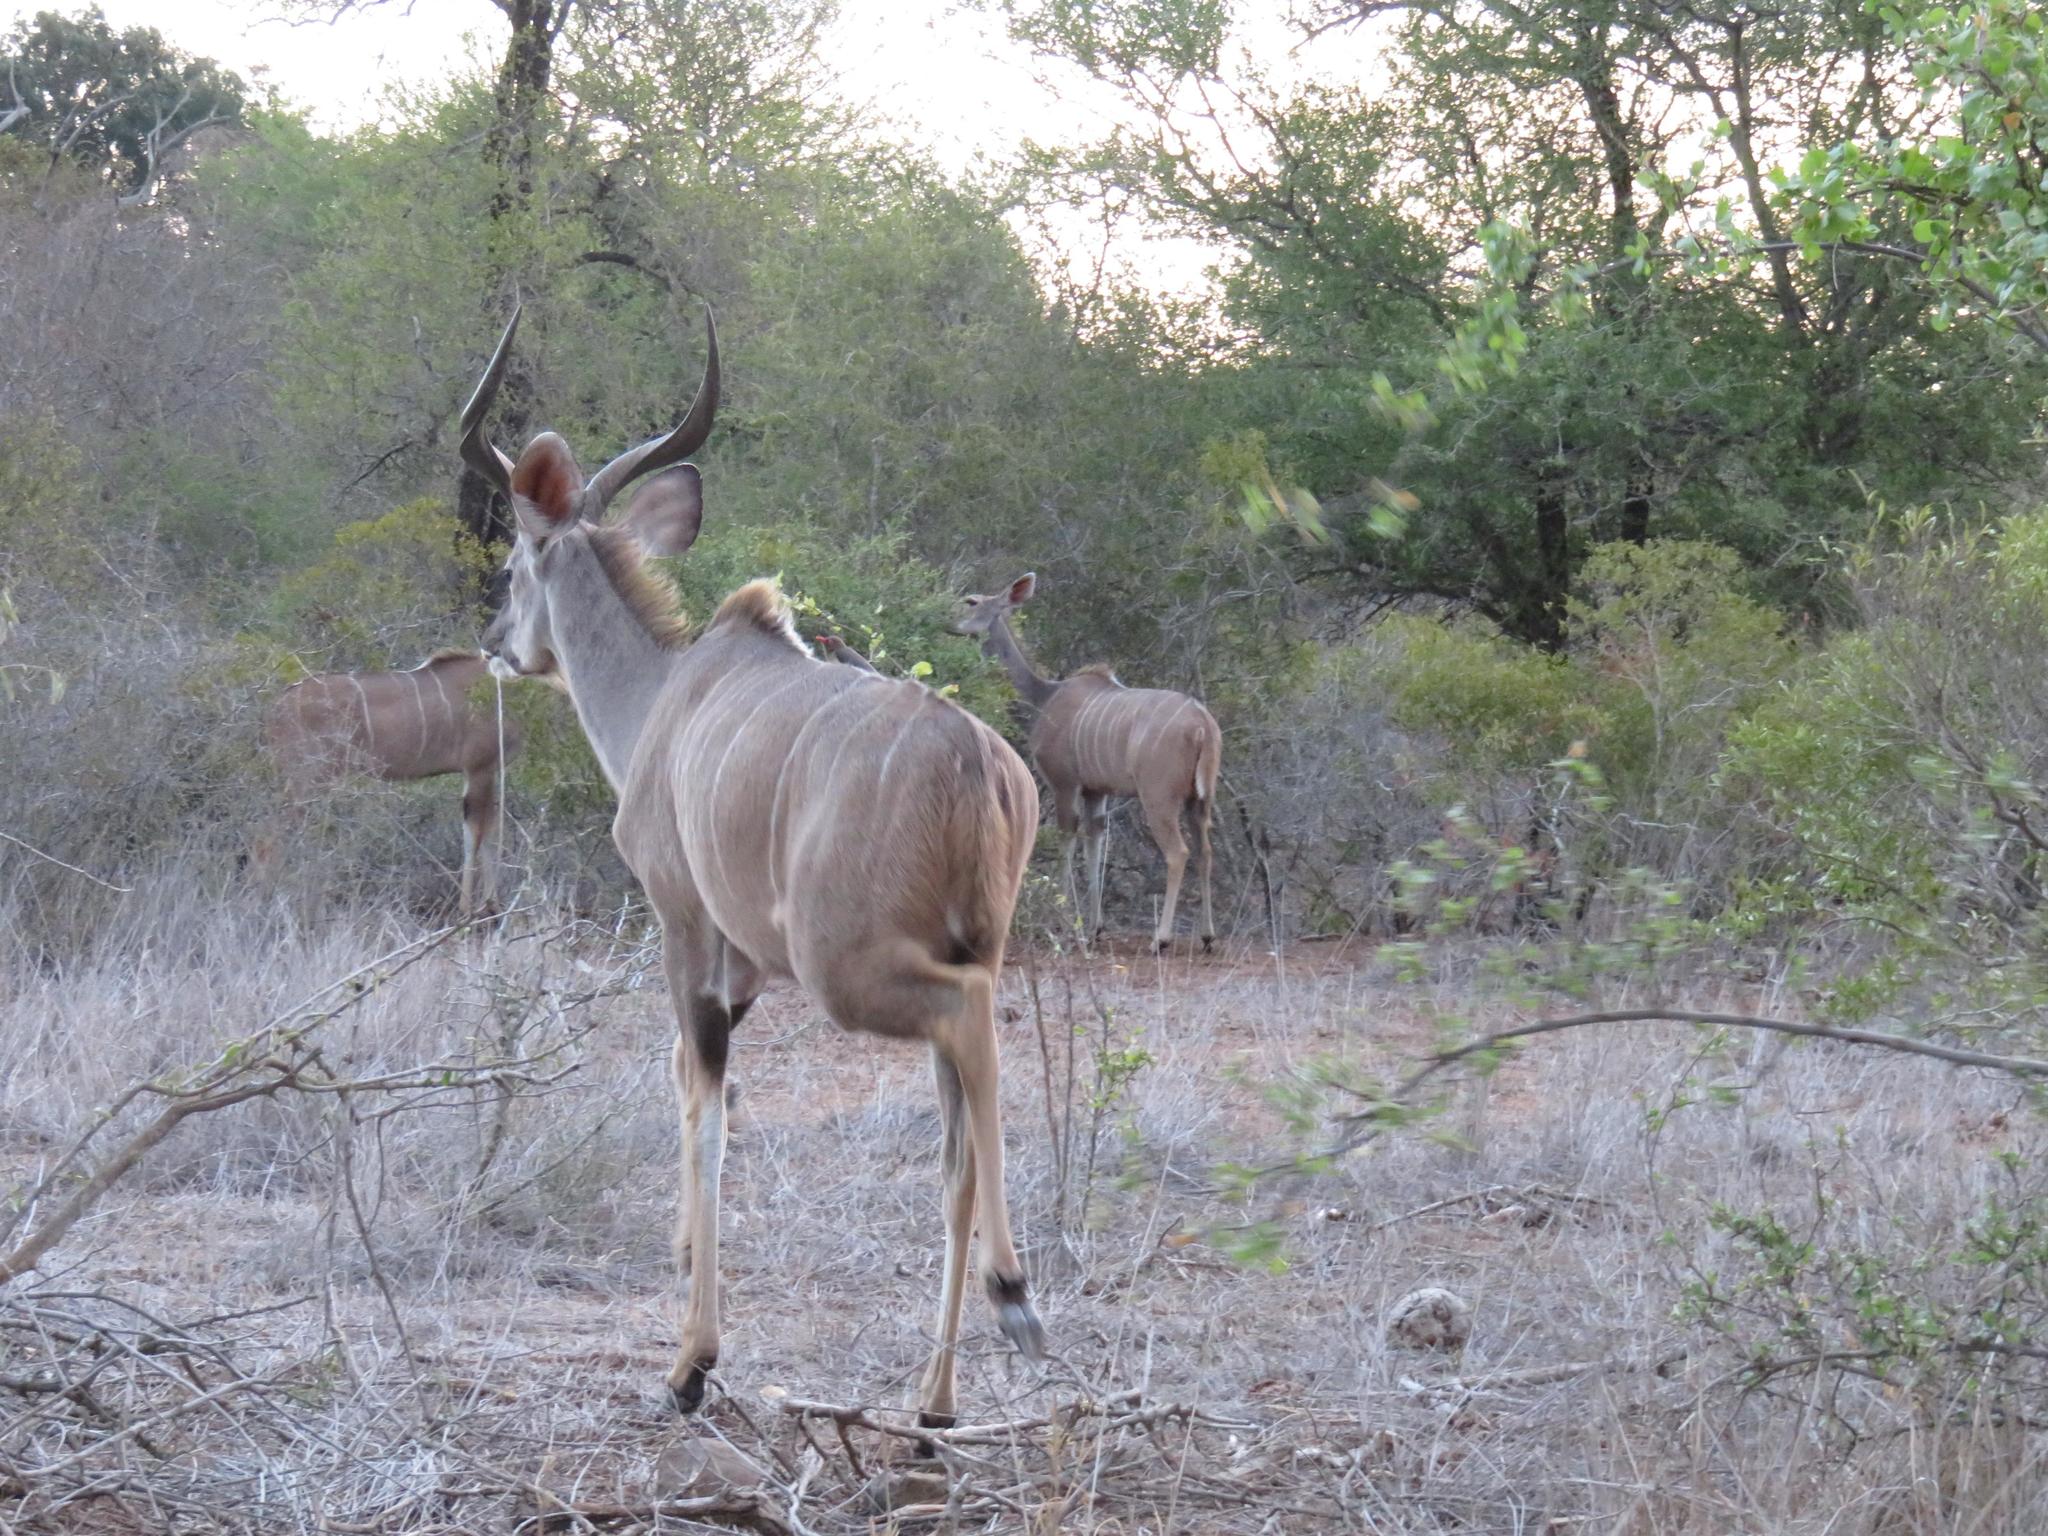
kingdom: Animalia
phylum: Chordata
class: Mammalia
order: Artiodactyla
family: Bovidae
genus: Tragelaphus
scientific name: Tragelaphus strepsiceros
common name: Greater kudu
